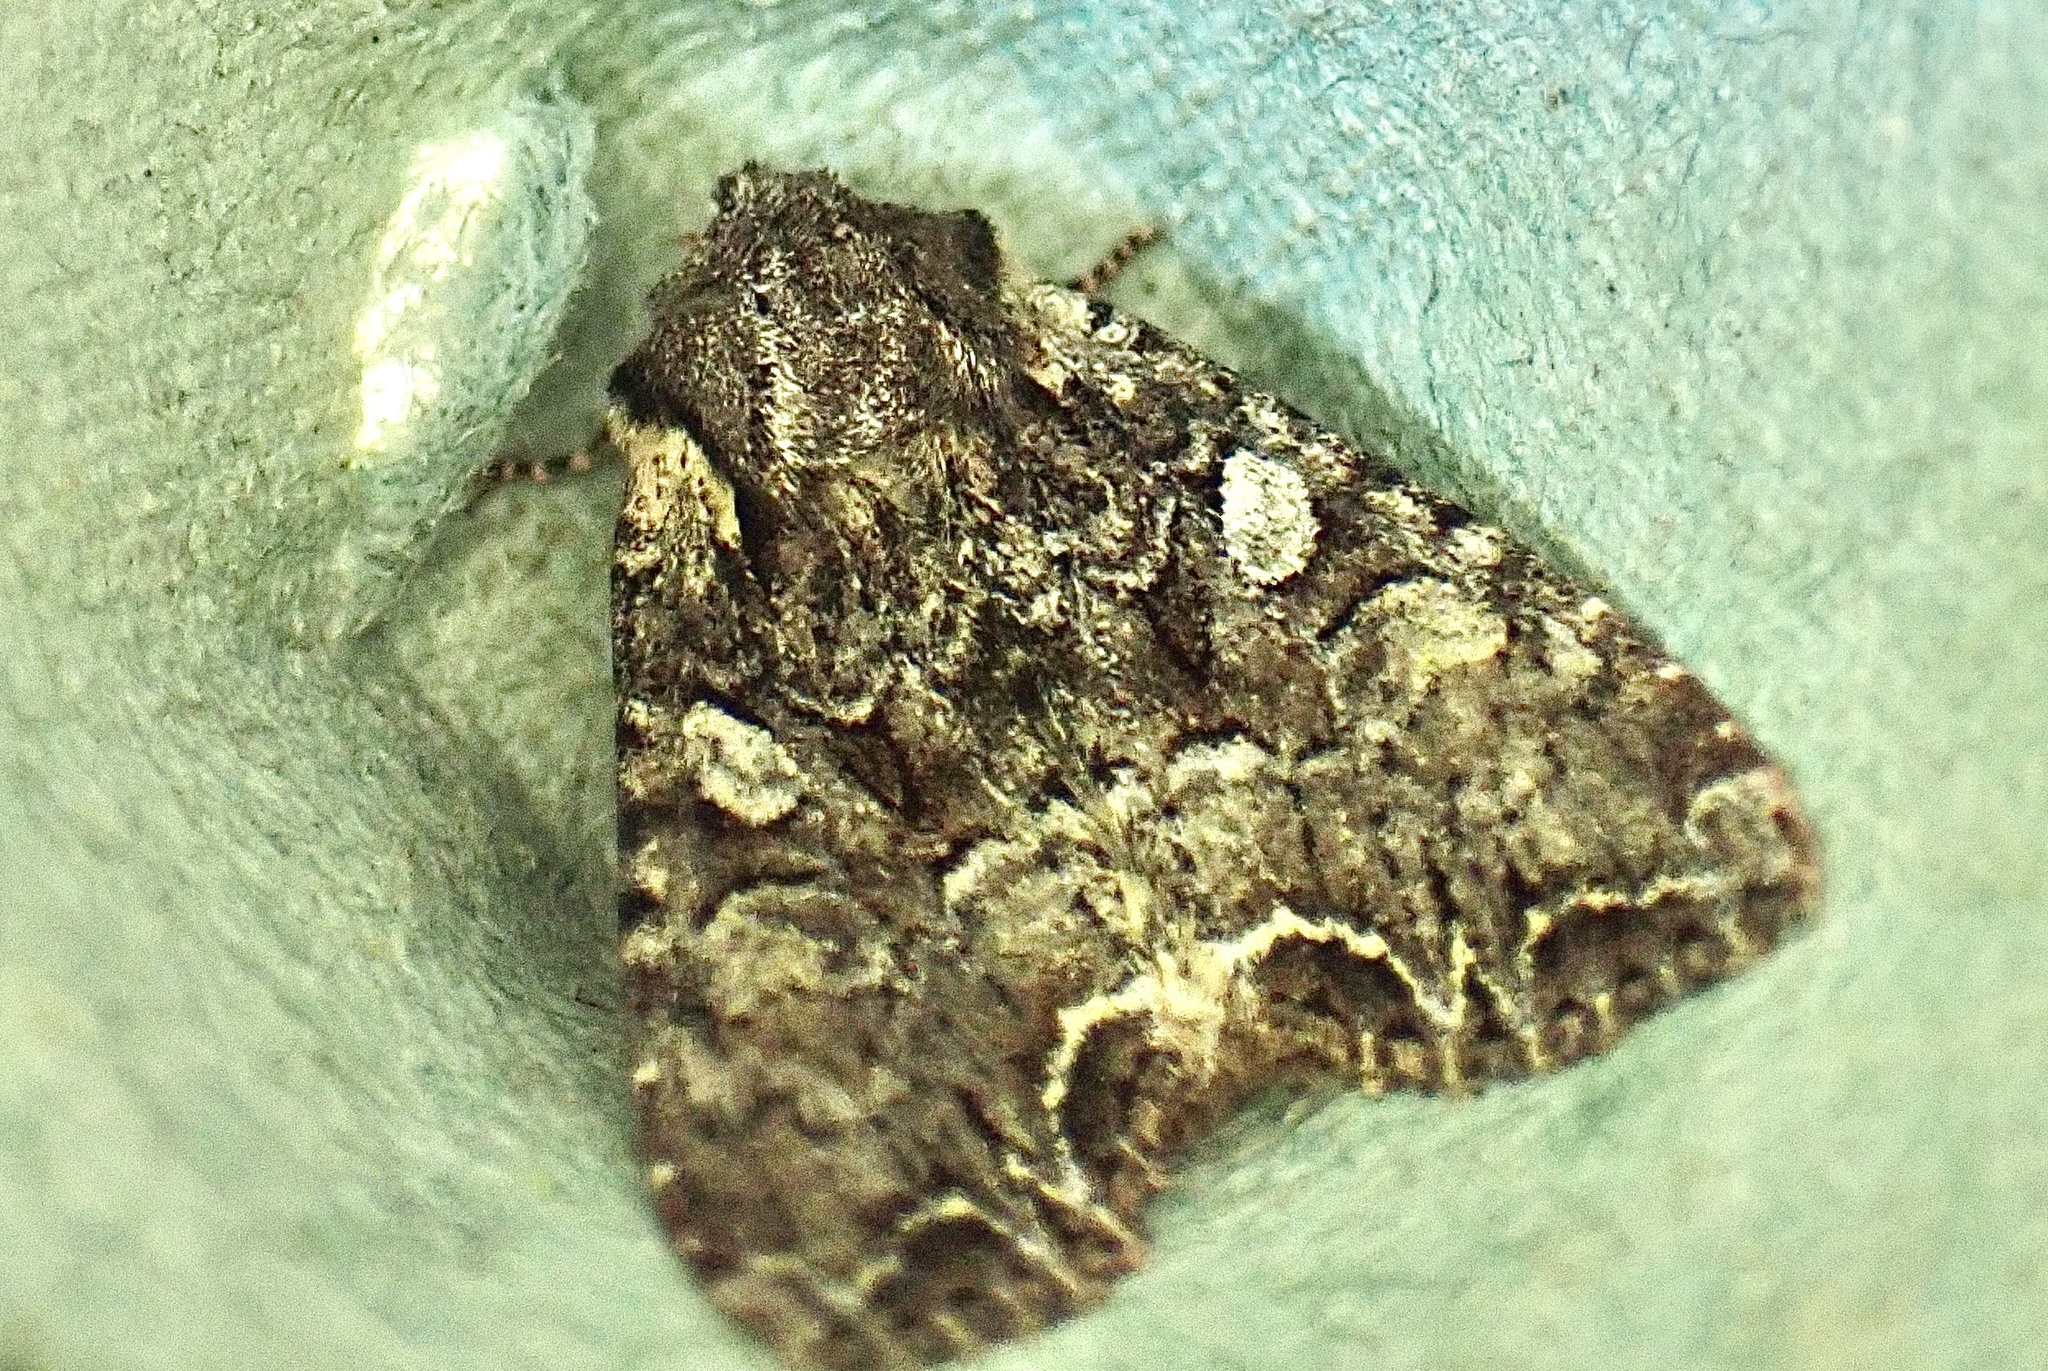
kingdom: Animalia
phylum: Arthropoda
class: Insecta
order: Lepidoptera
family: Noctuidae
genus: Lacanobia
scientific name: Lacanobia thalassina
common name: Pale-shouldered brocade
